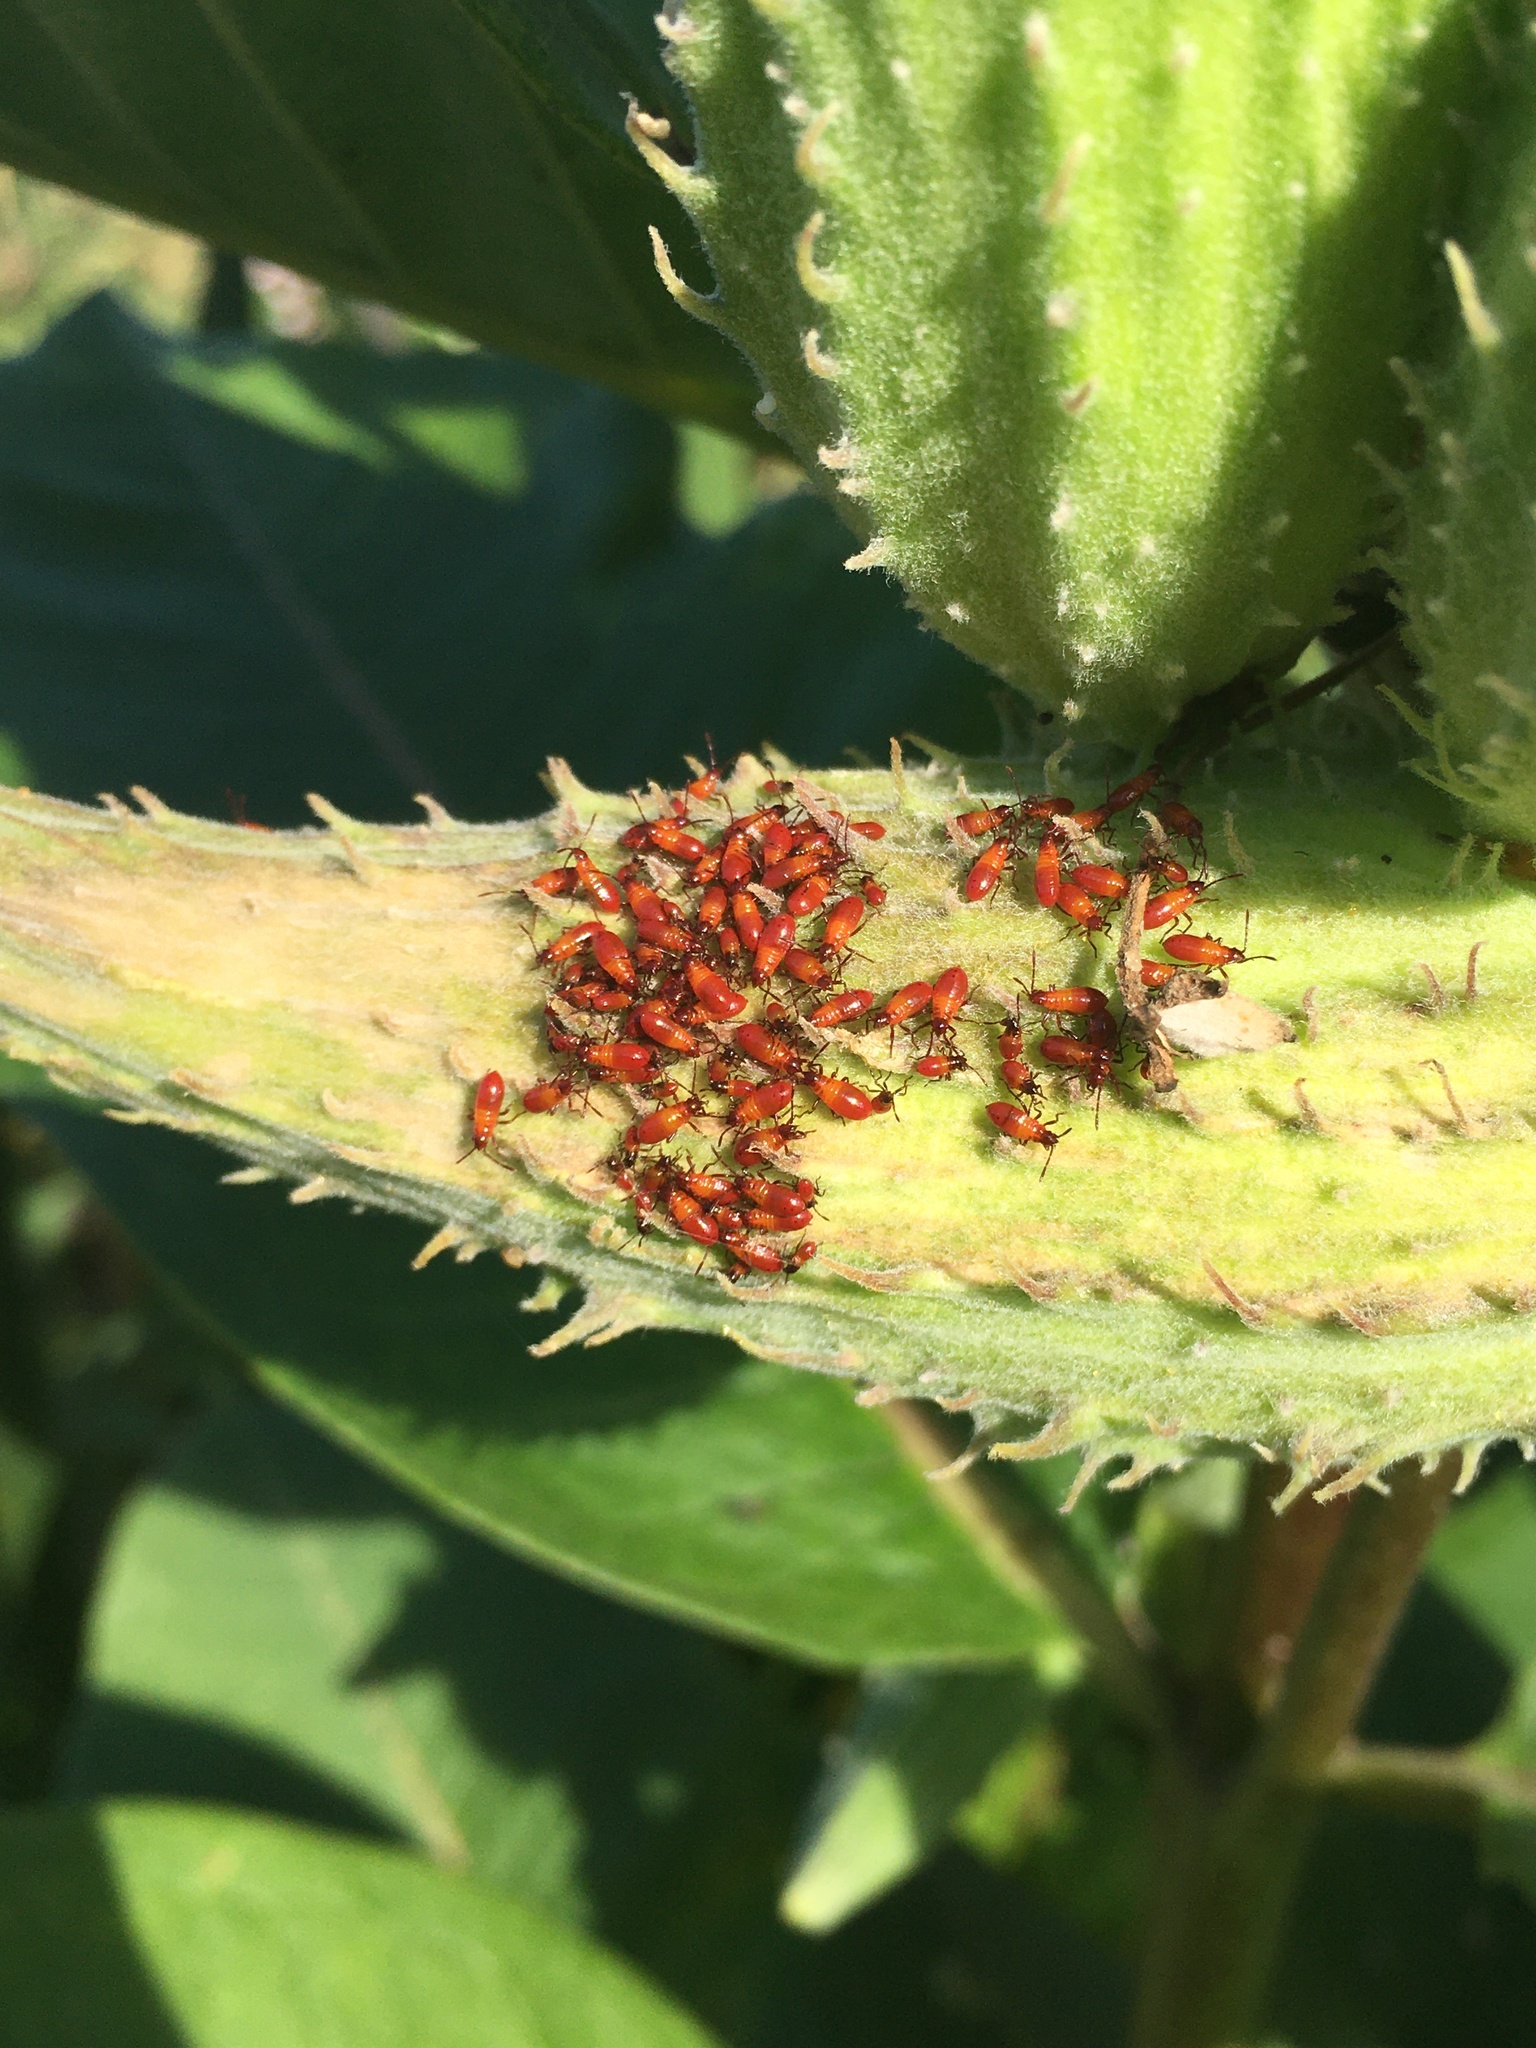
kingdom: Animalia
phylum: Arthropoda
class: Insecta
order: Hemiptera
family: Lygaeidae
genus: Oncopeltus
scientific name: Oncopeltus fasciatus
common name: Large milkweed bug
